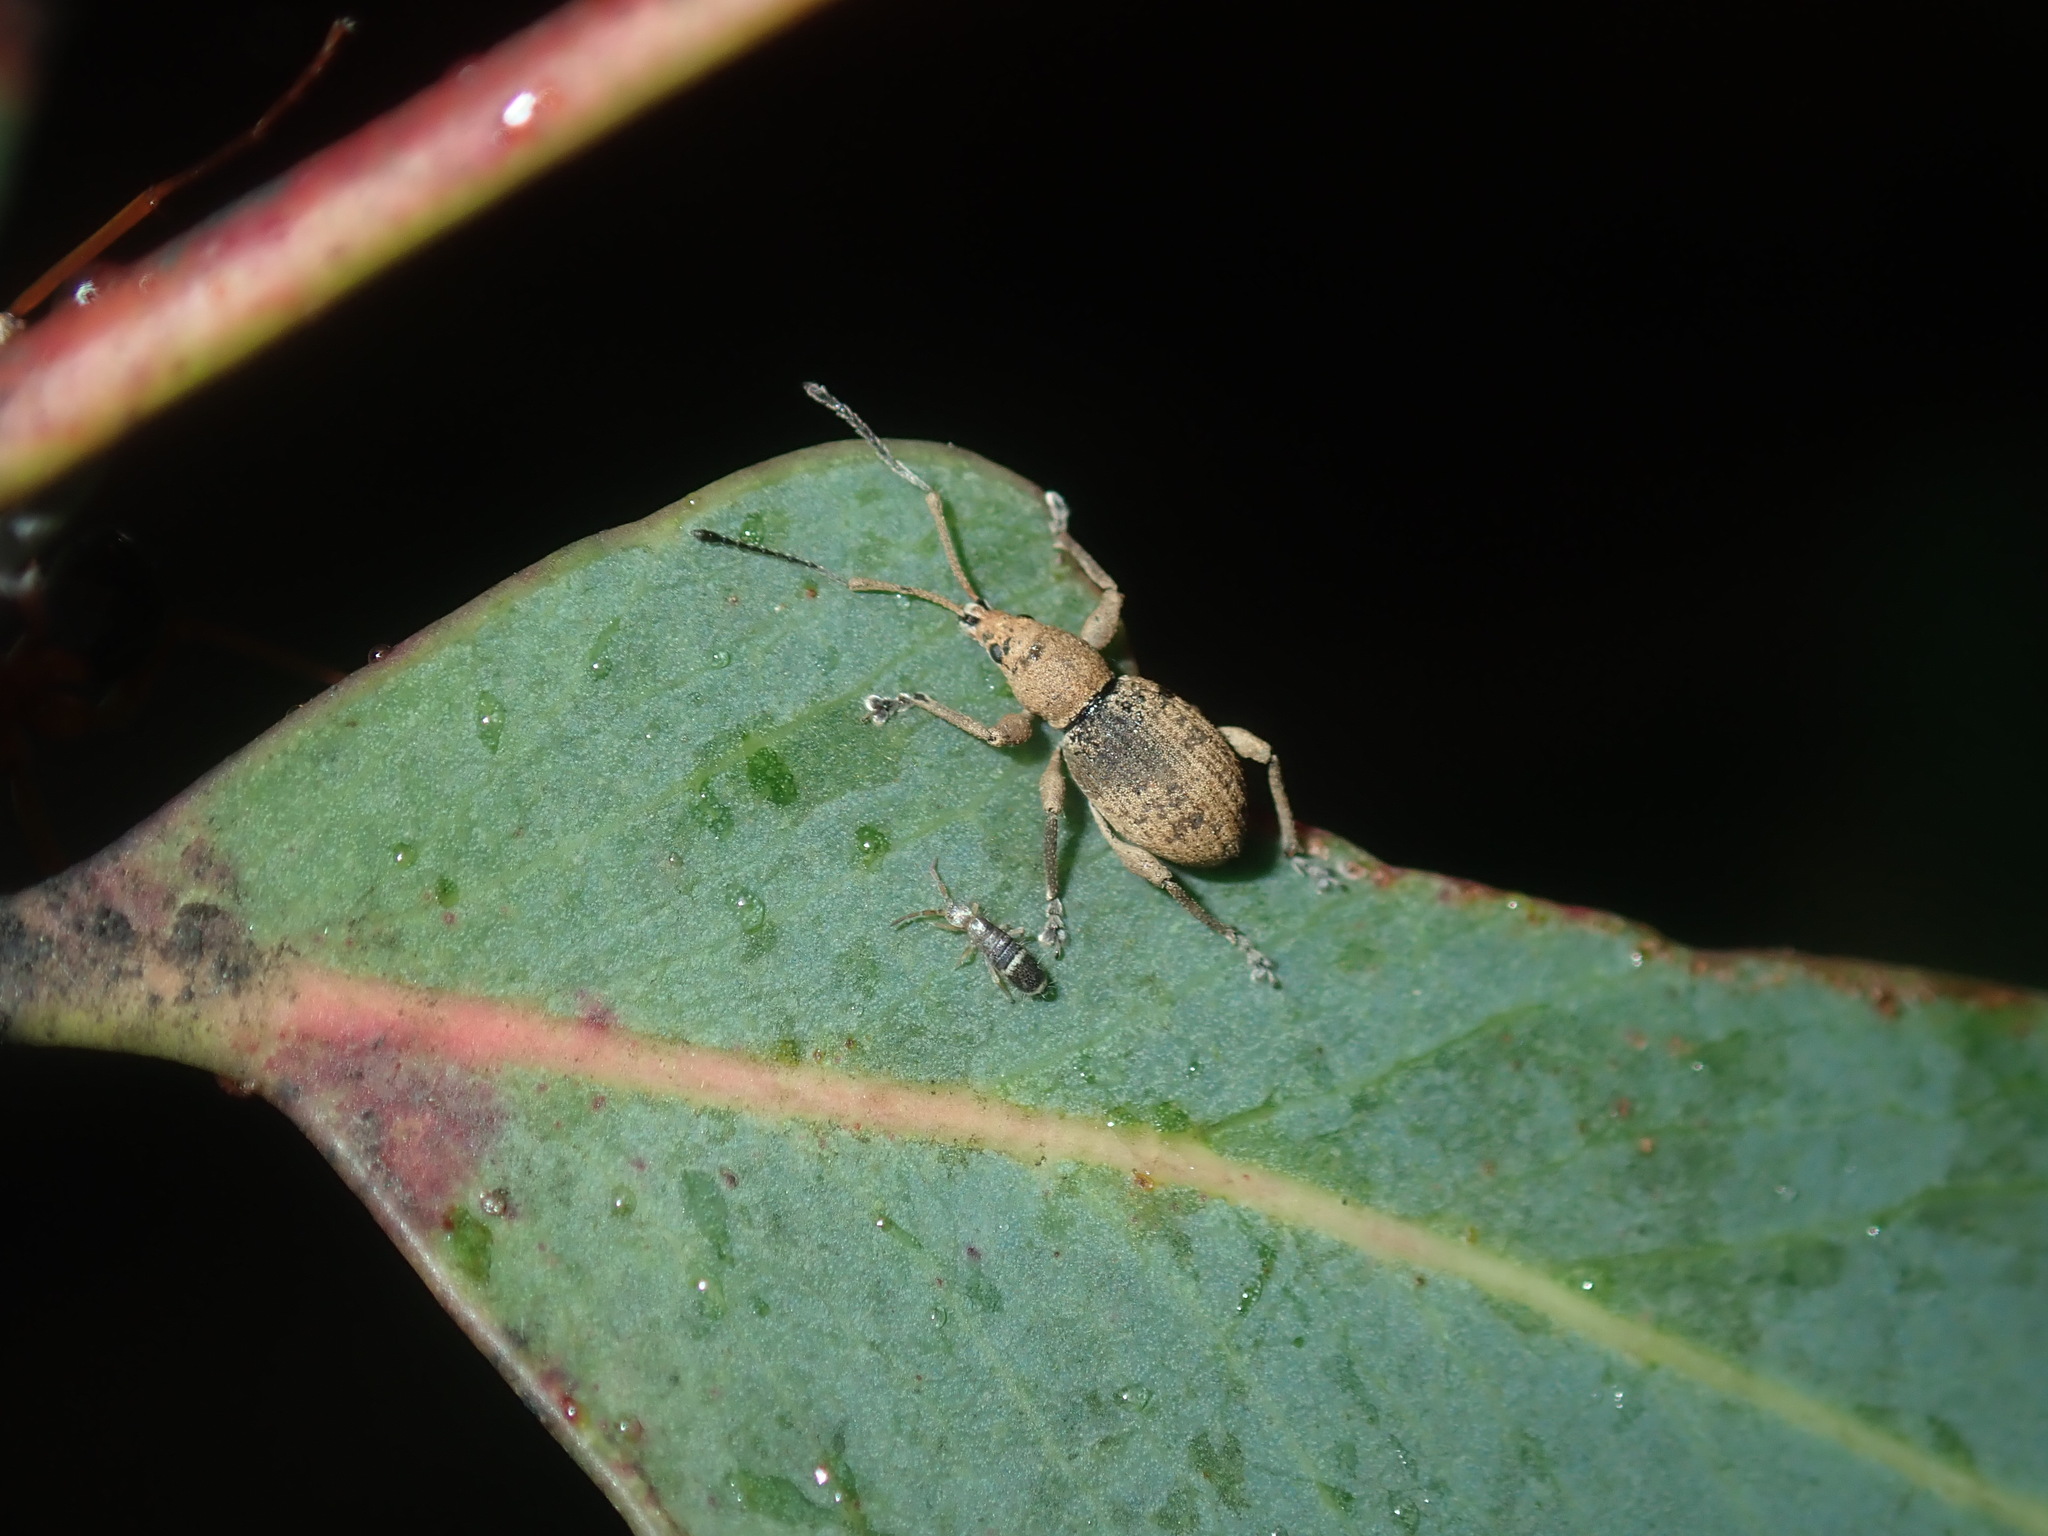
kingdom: Animalia
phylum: Arthropoda
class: Insecta
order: Coleoptera
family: Curculionidae
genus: Merimnetes
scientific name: Merimnetes oblongus
